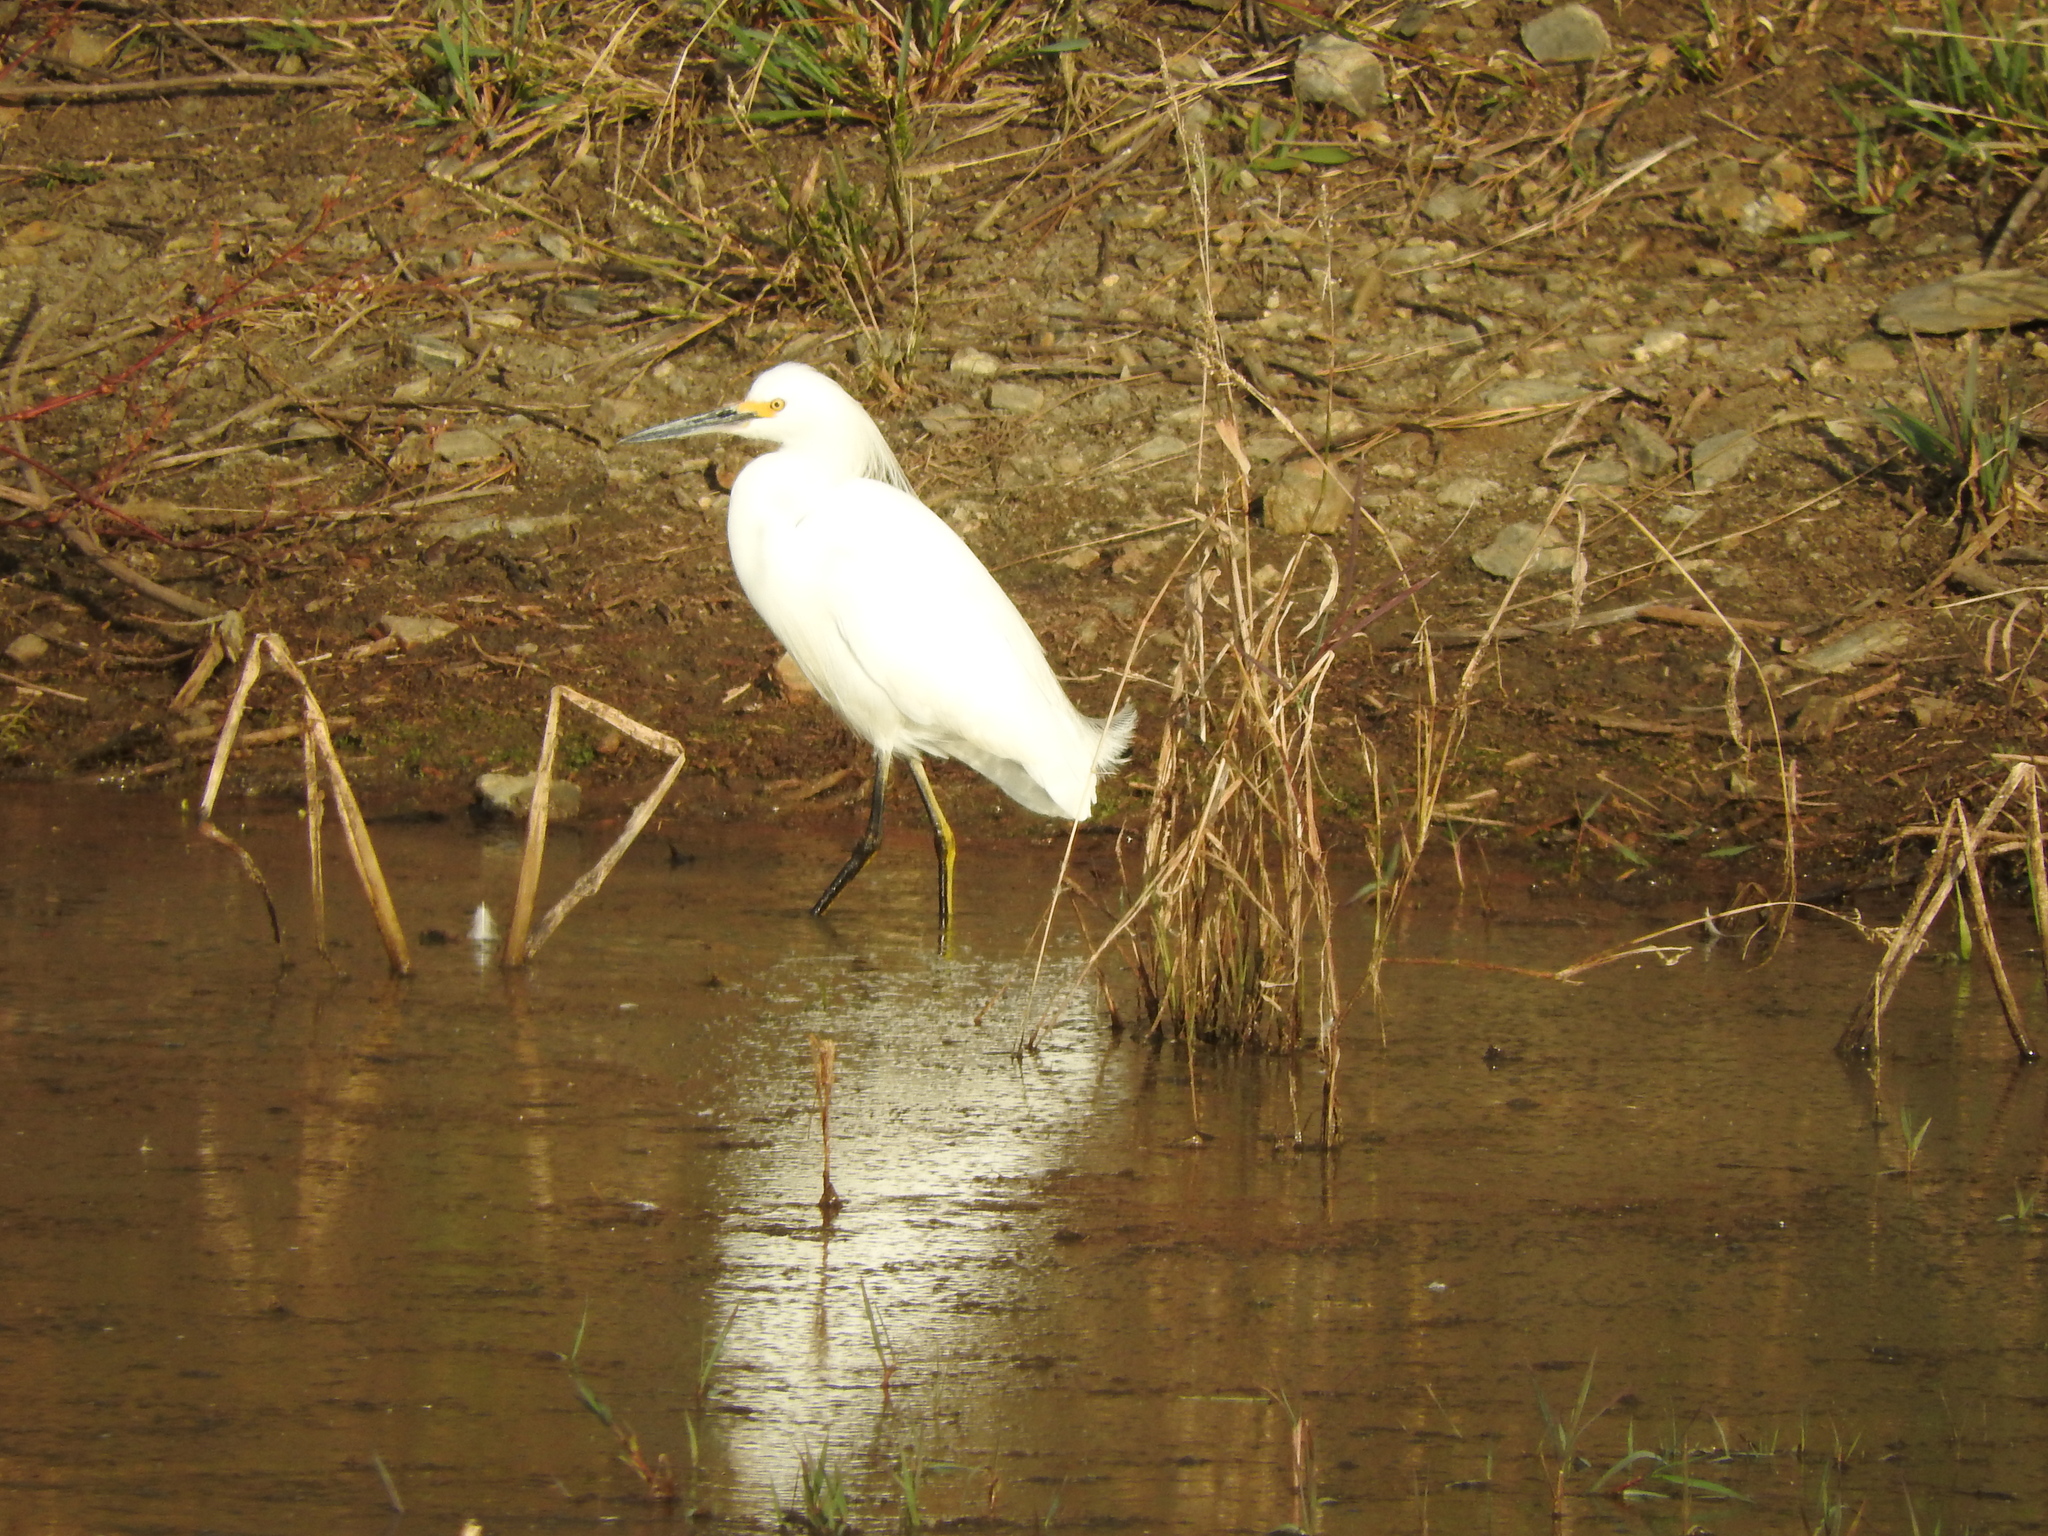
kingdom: Animalia
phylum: Chordata
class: Aves
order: Pelecaniformes
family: Ardeidae
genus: Egretta
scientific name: Egretta thula
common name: Snowy egret
